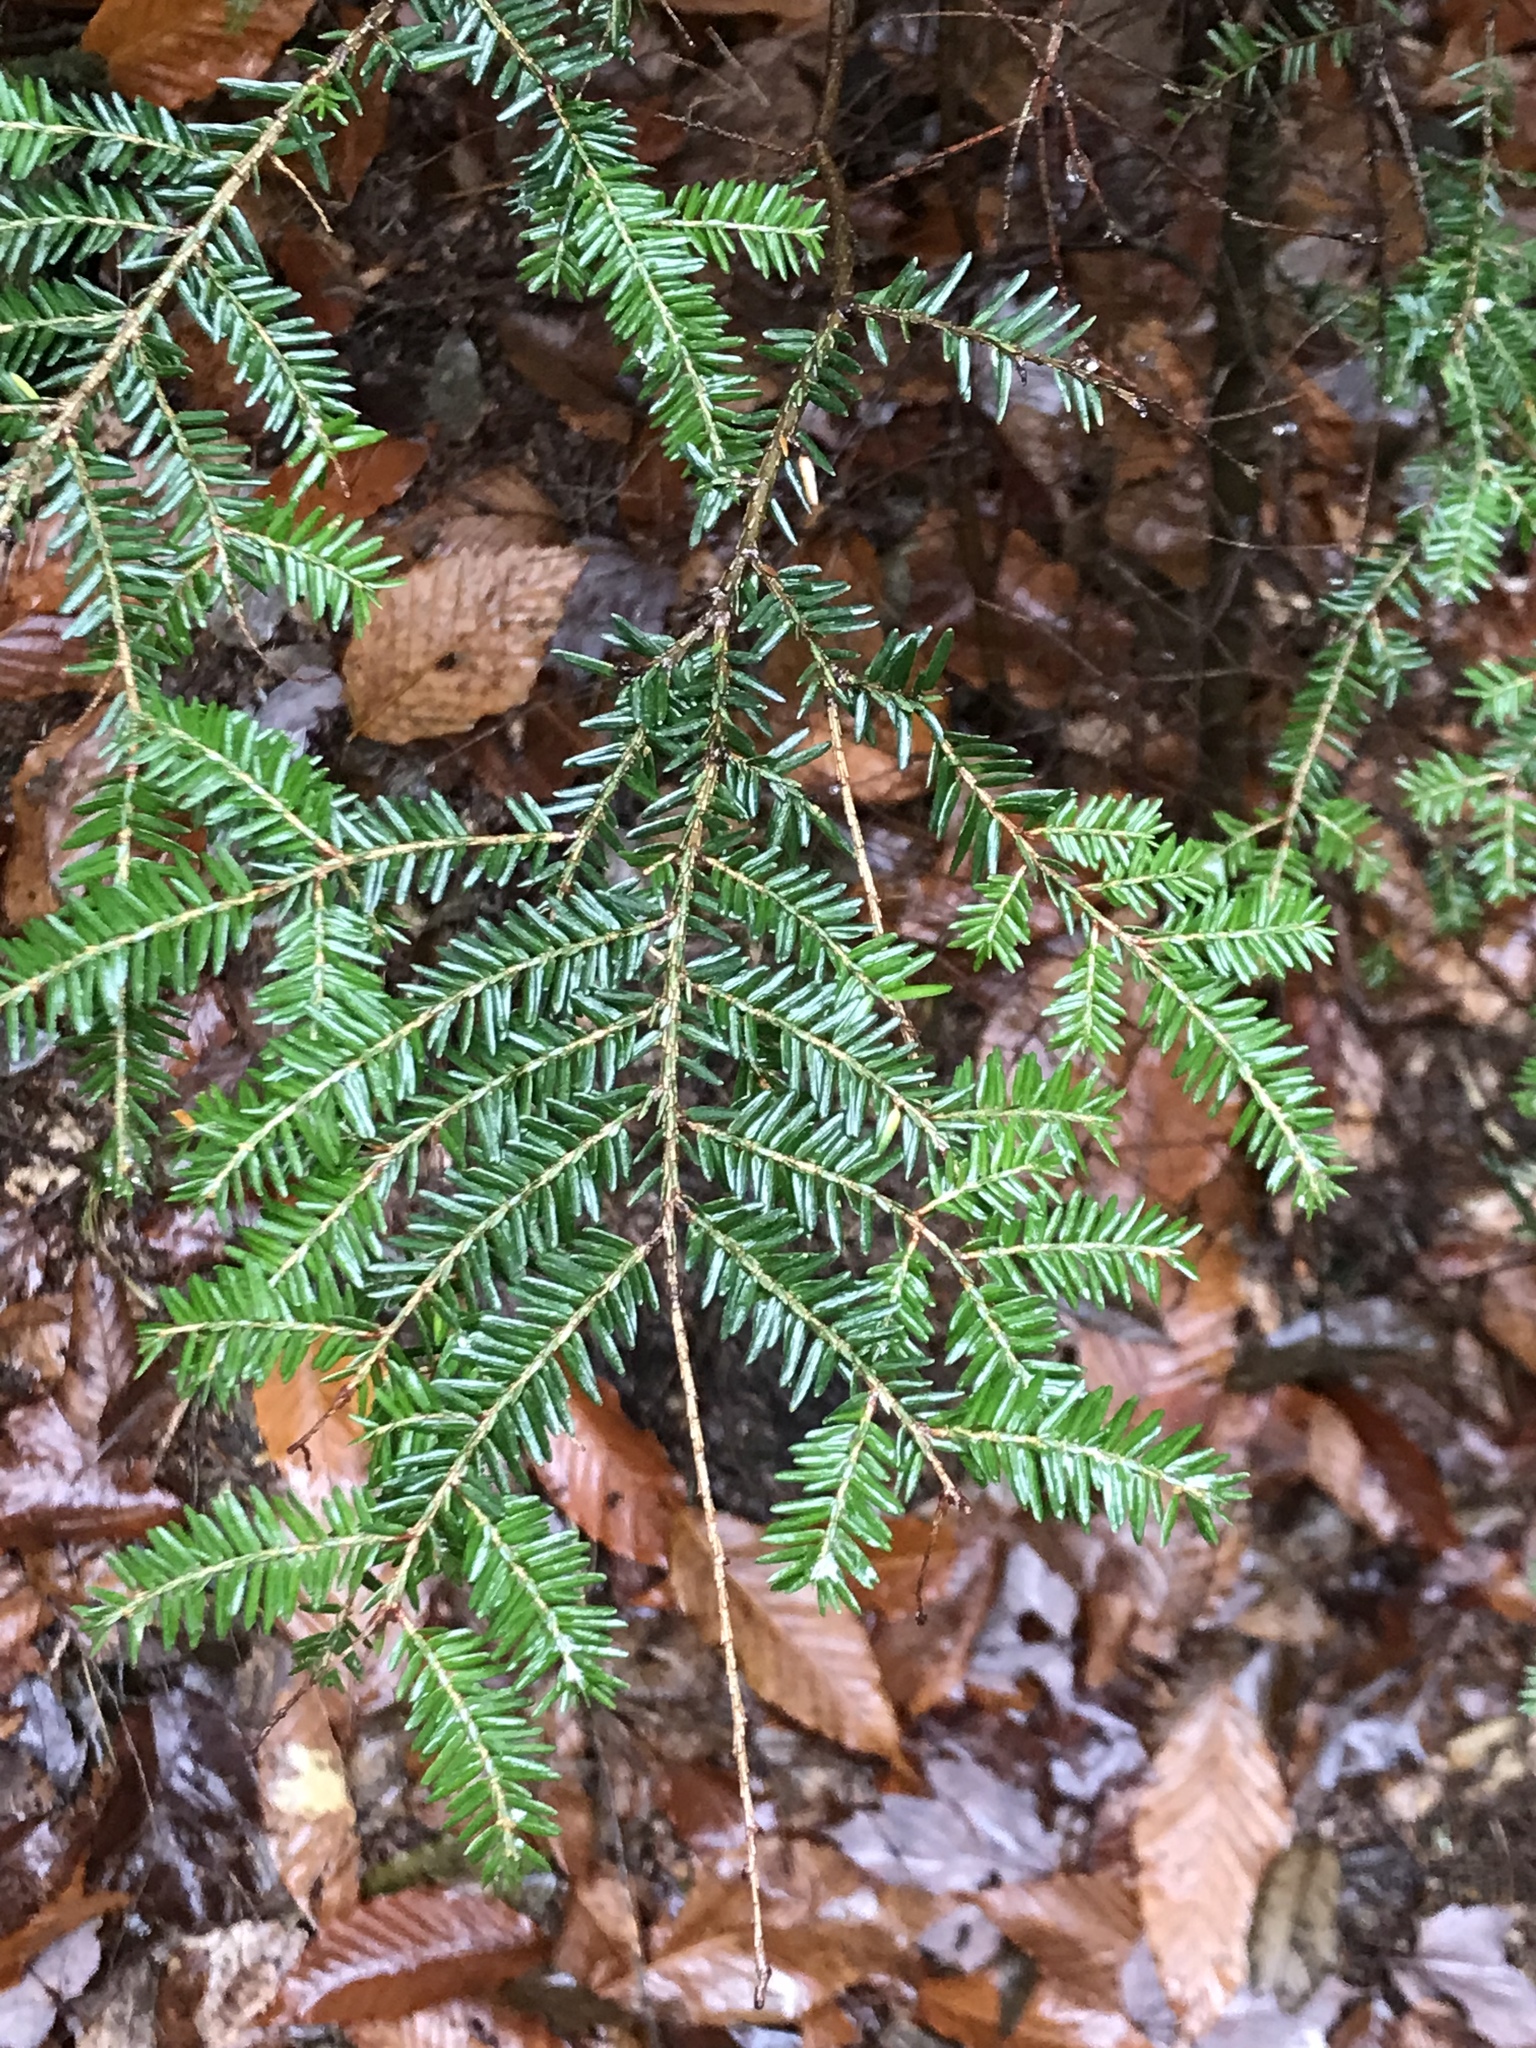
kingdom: Plantae
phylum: Tracheophyta
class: Pinopsida
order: Pinales
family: Pinaceae
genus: Tsuga
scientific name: Tsuga canadensis
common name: Eastern hemlock
